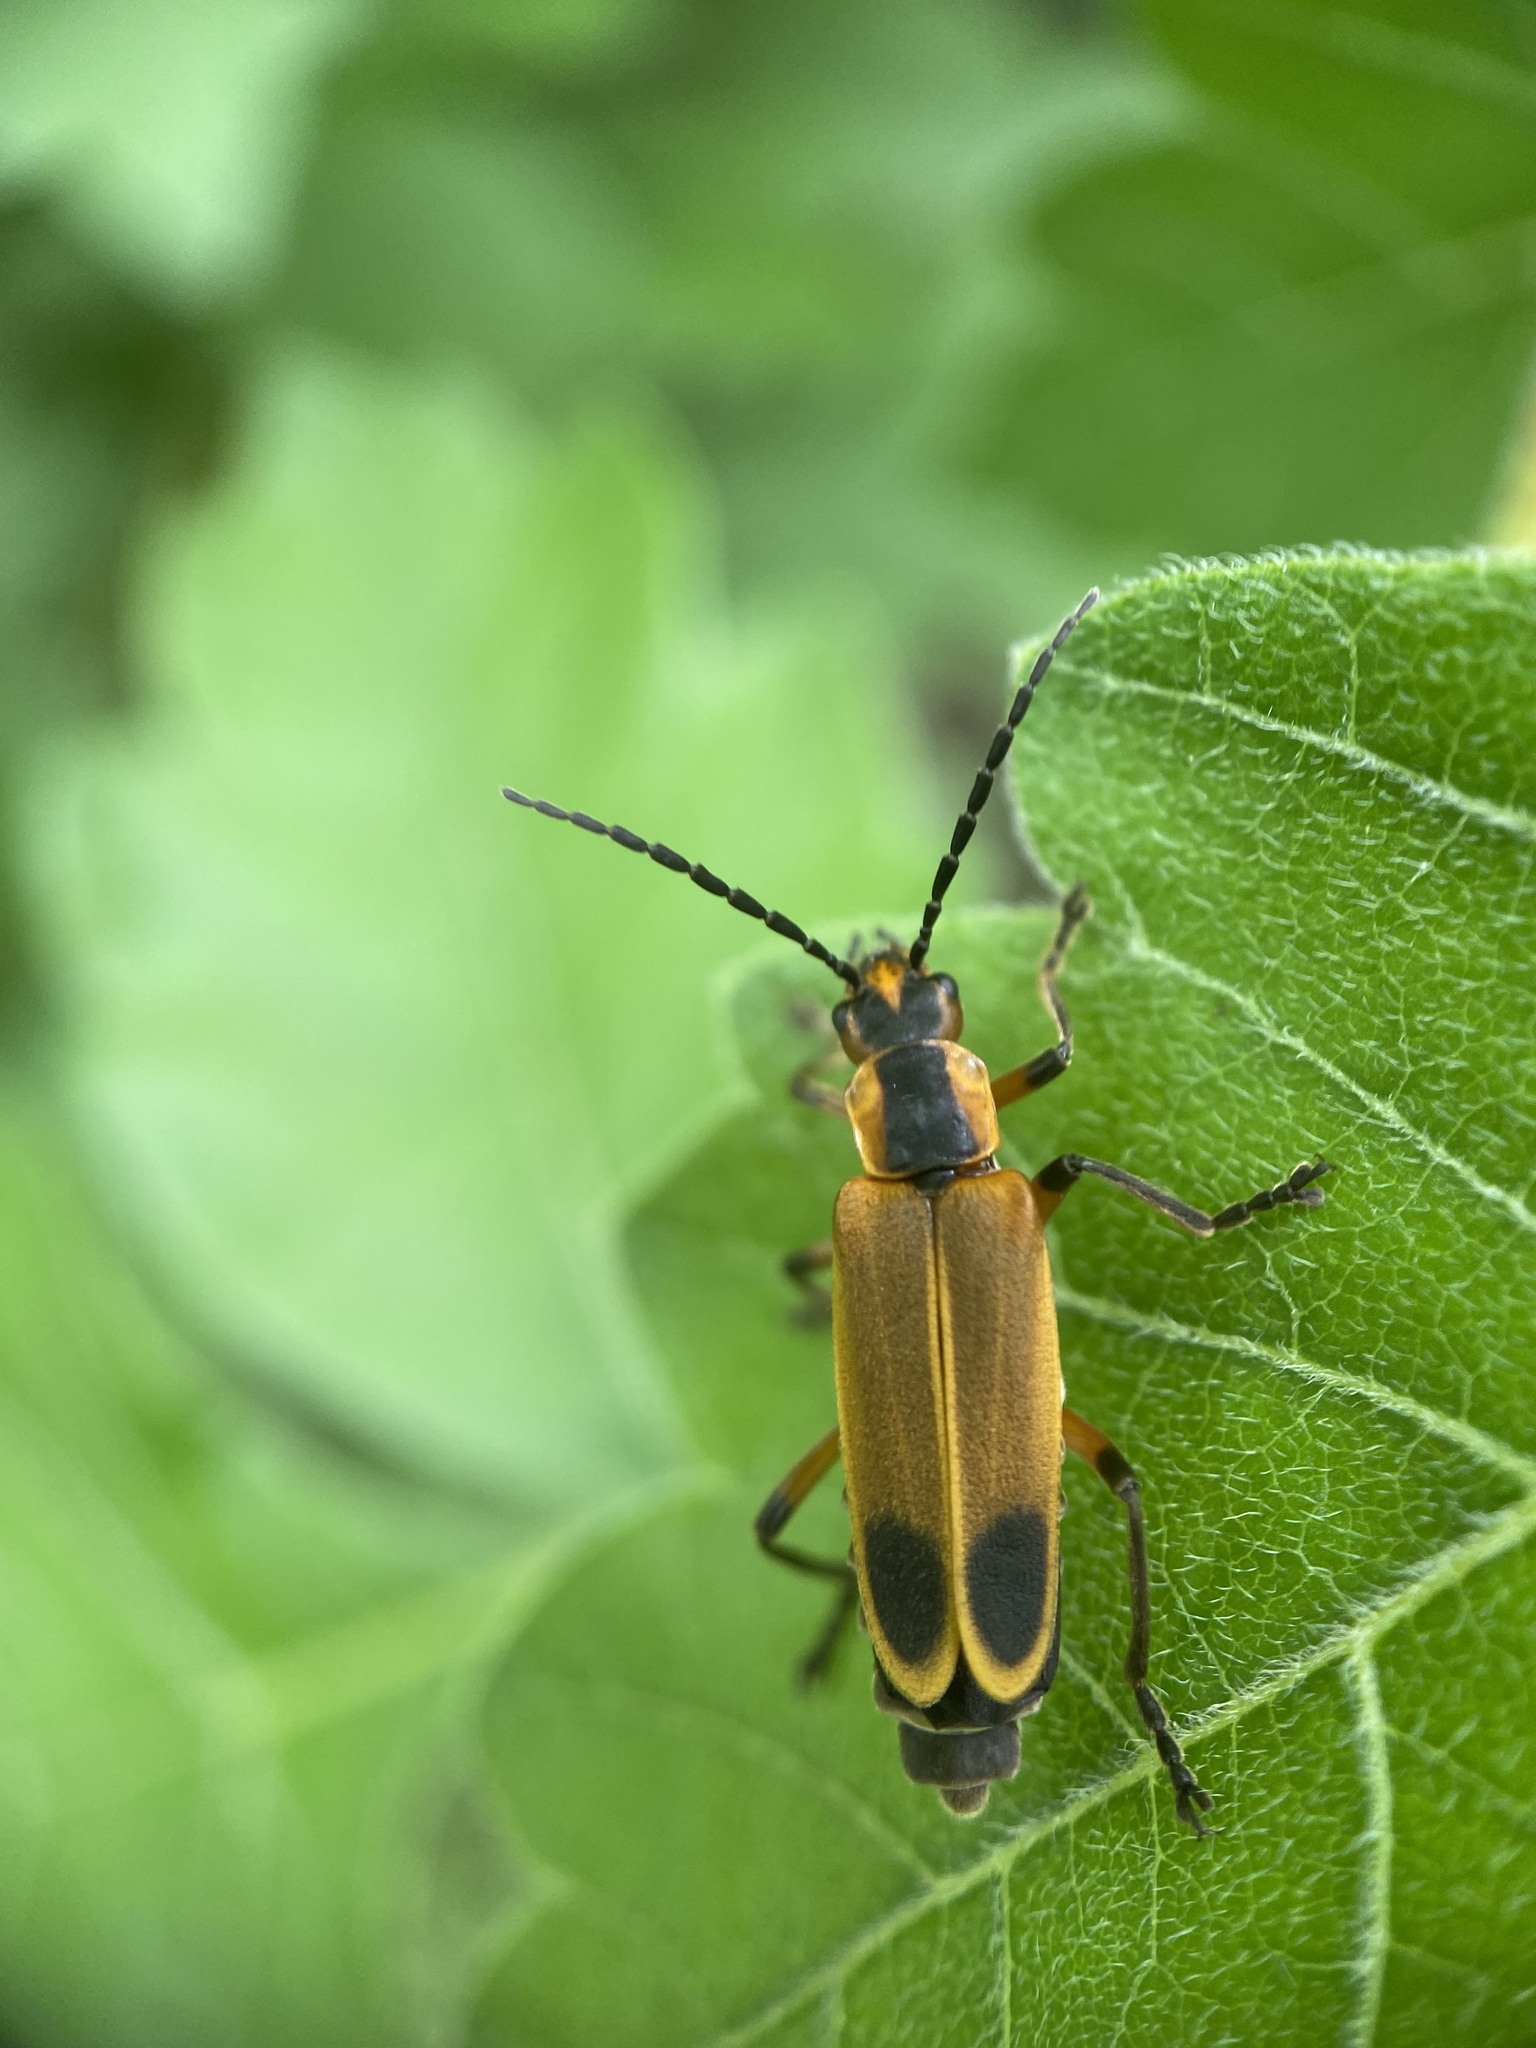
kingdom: Animalia
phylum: Arthropoda
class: Insecta
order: Coleoptera
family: Cantharidae
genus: Chauliognathus
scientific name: Chauliognathus marginatus
